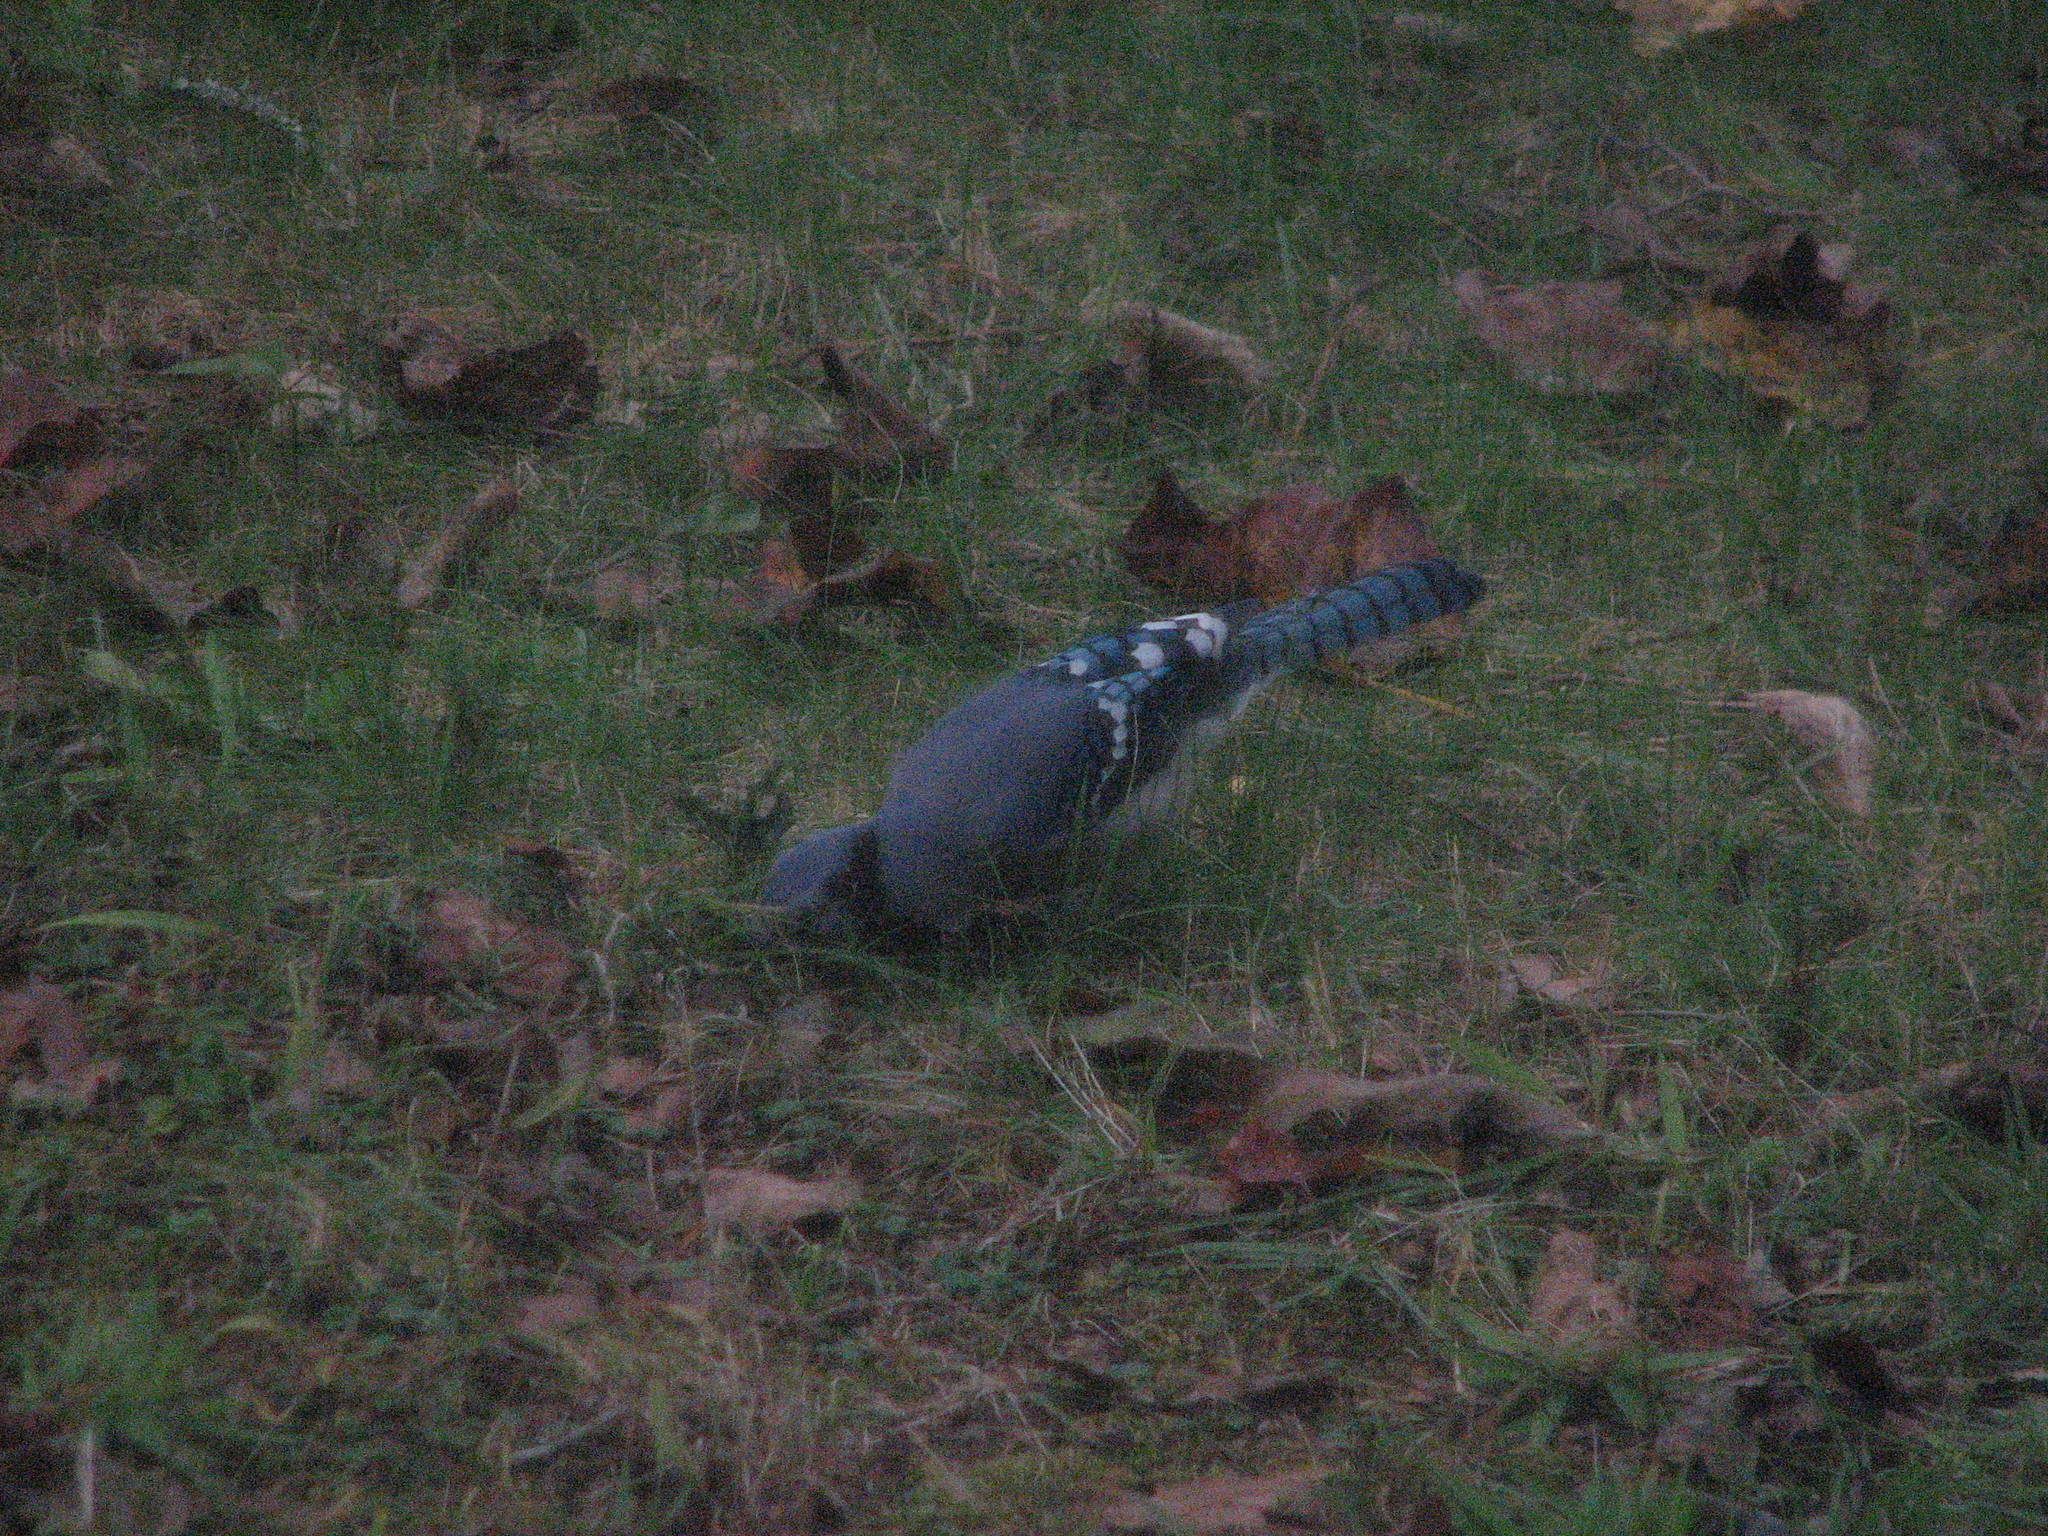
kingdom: Animalia
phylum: Chordata
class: Aves
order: Passeriformes
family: Corvidae
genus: Cyanocitta
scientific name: Cyanocitta cristata
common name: Blue jay
